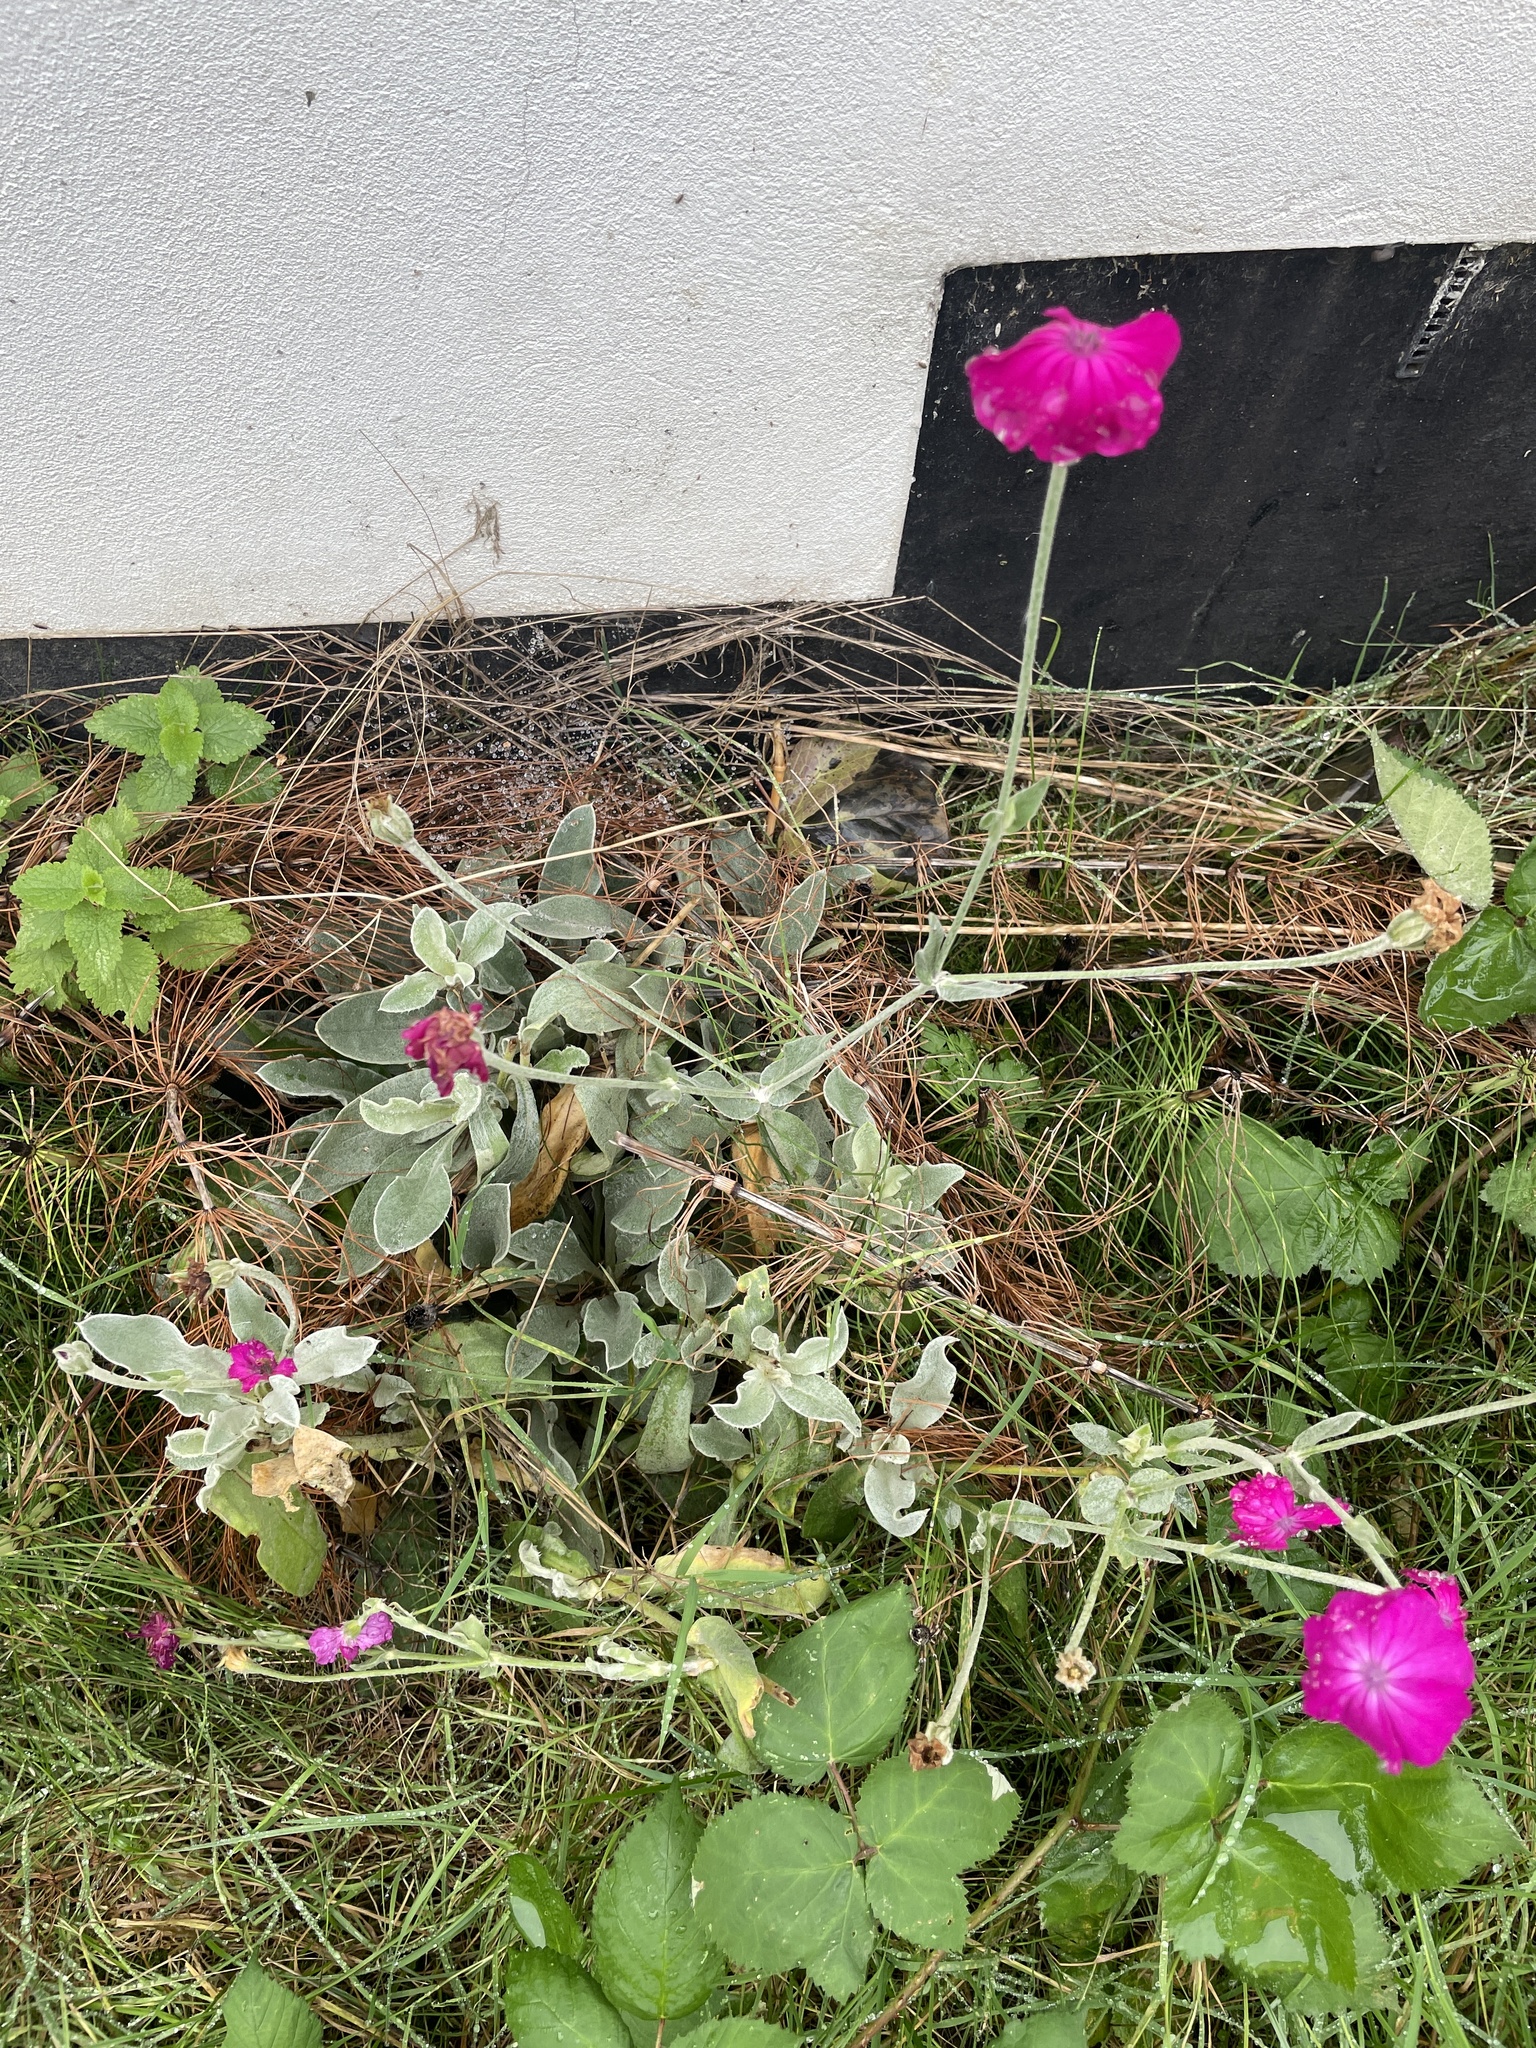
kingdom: Plantae
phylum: Tracheophyta
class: Magnoliopsida
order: Caryophyllales
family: Caryophyllaceae
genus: Silene
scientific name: Silene coronaria
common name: Rose campion
